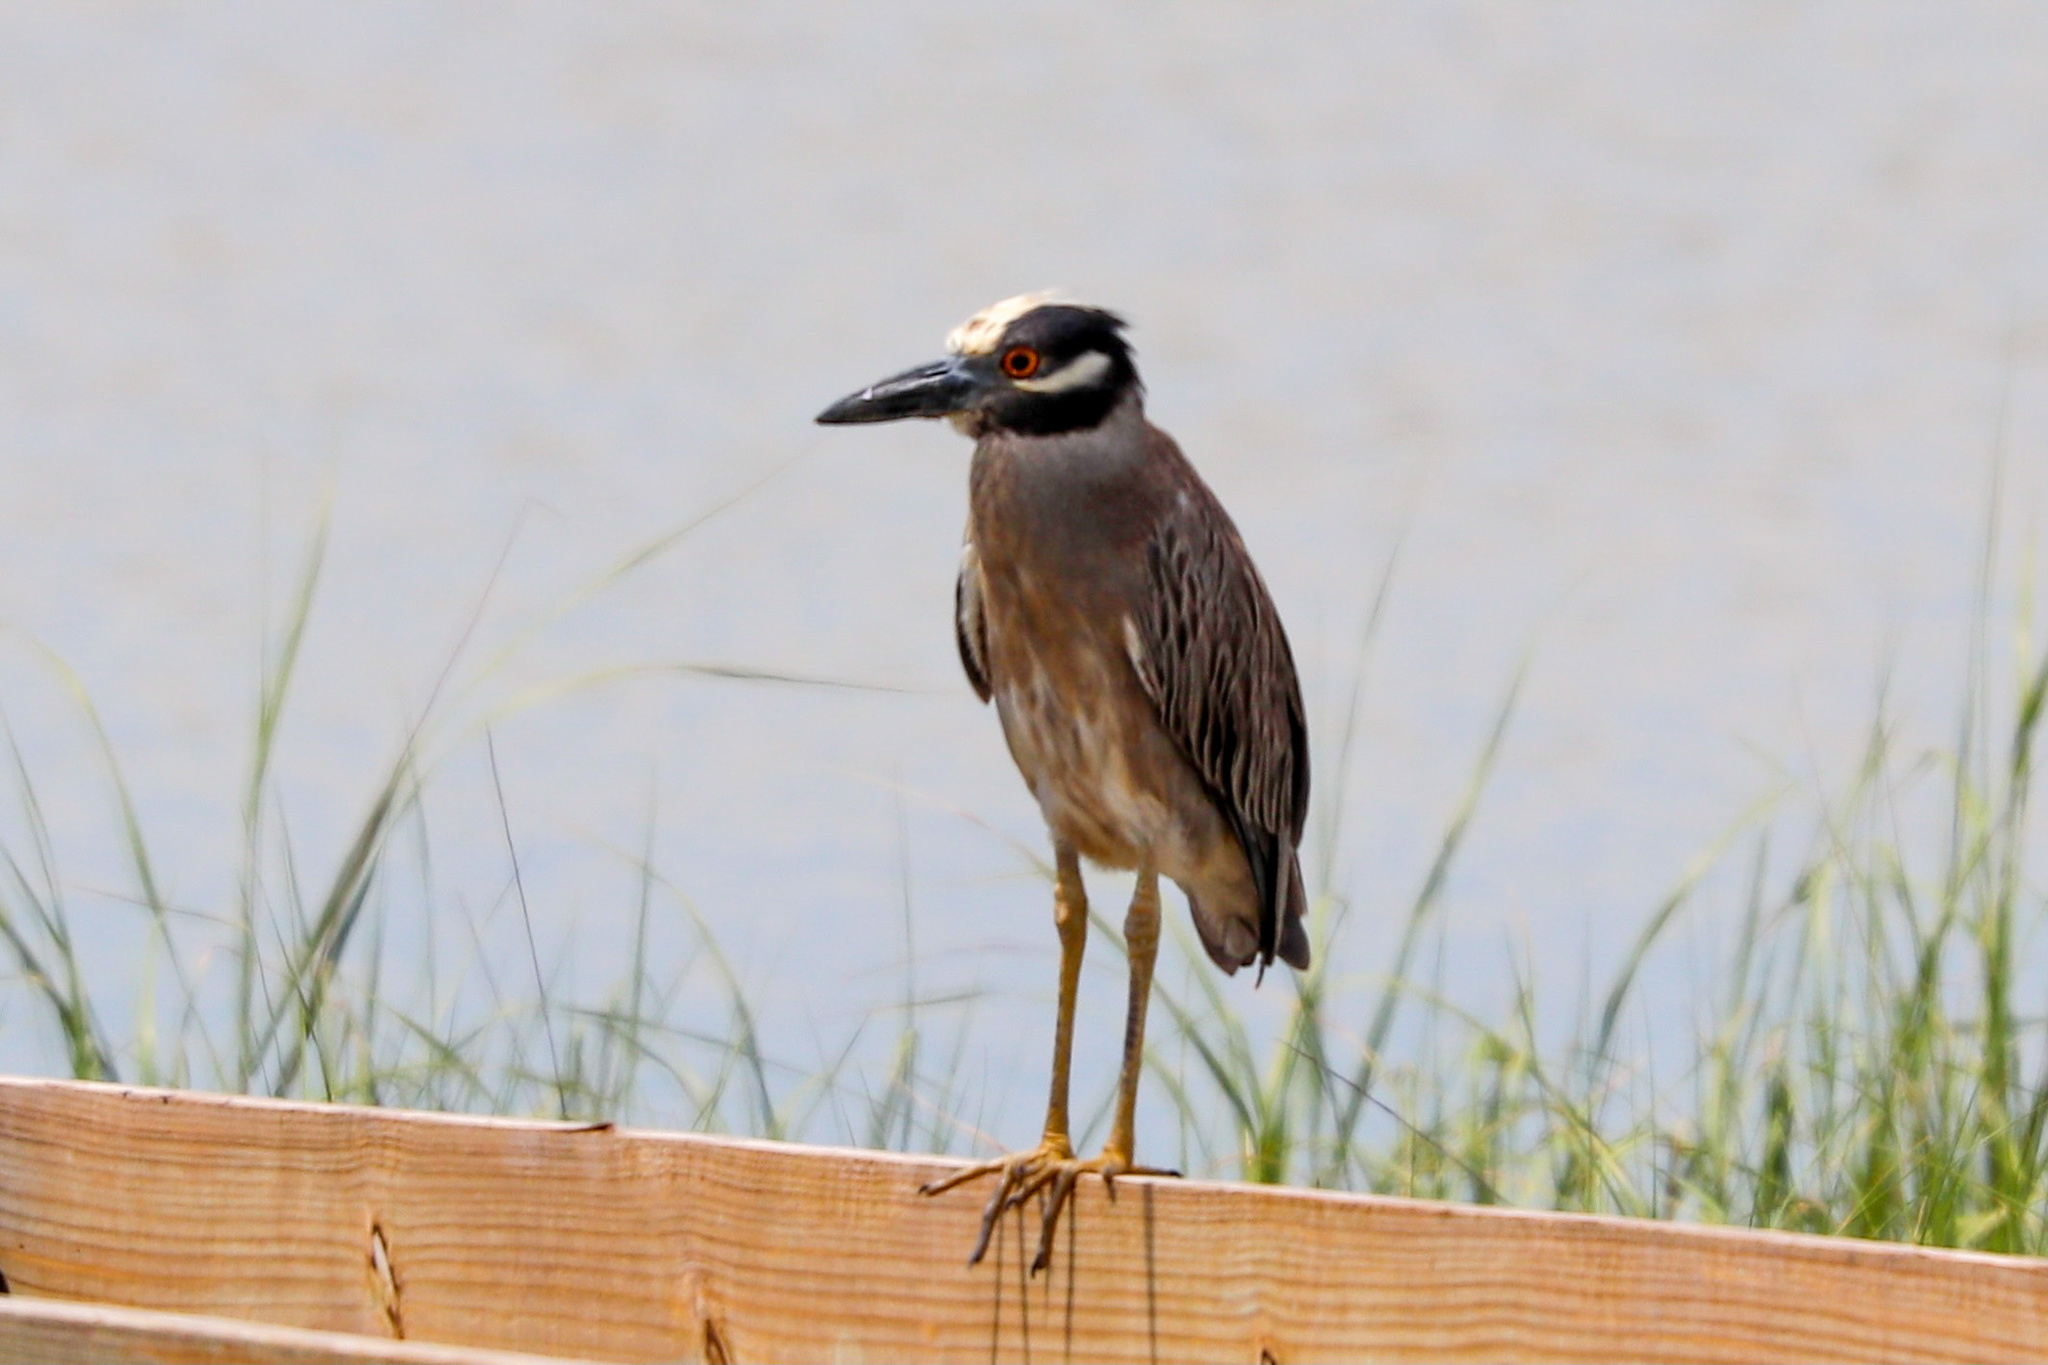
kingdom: Animalia
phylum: Chordata
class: Aves
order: Pelecaniformes
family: Ardeidae
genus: Nyctanassa
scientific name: Nyctanassa violacea
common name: Yellow-crowned night heron
